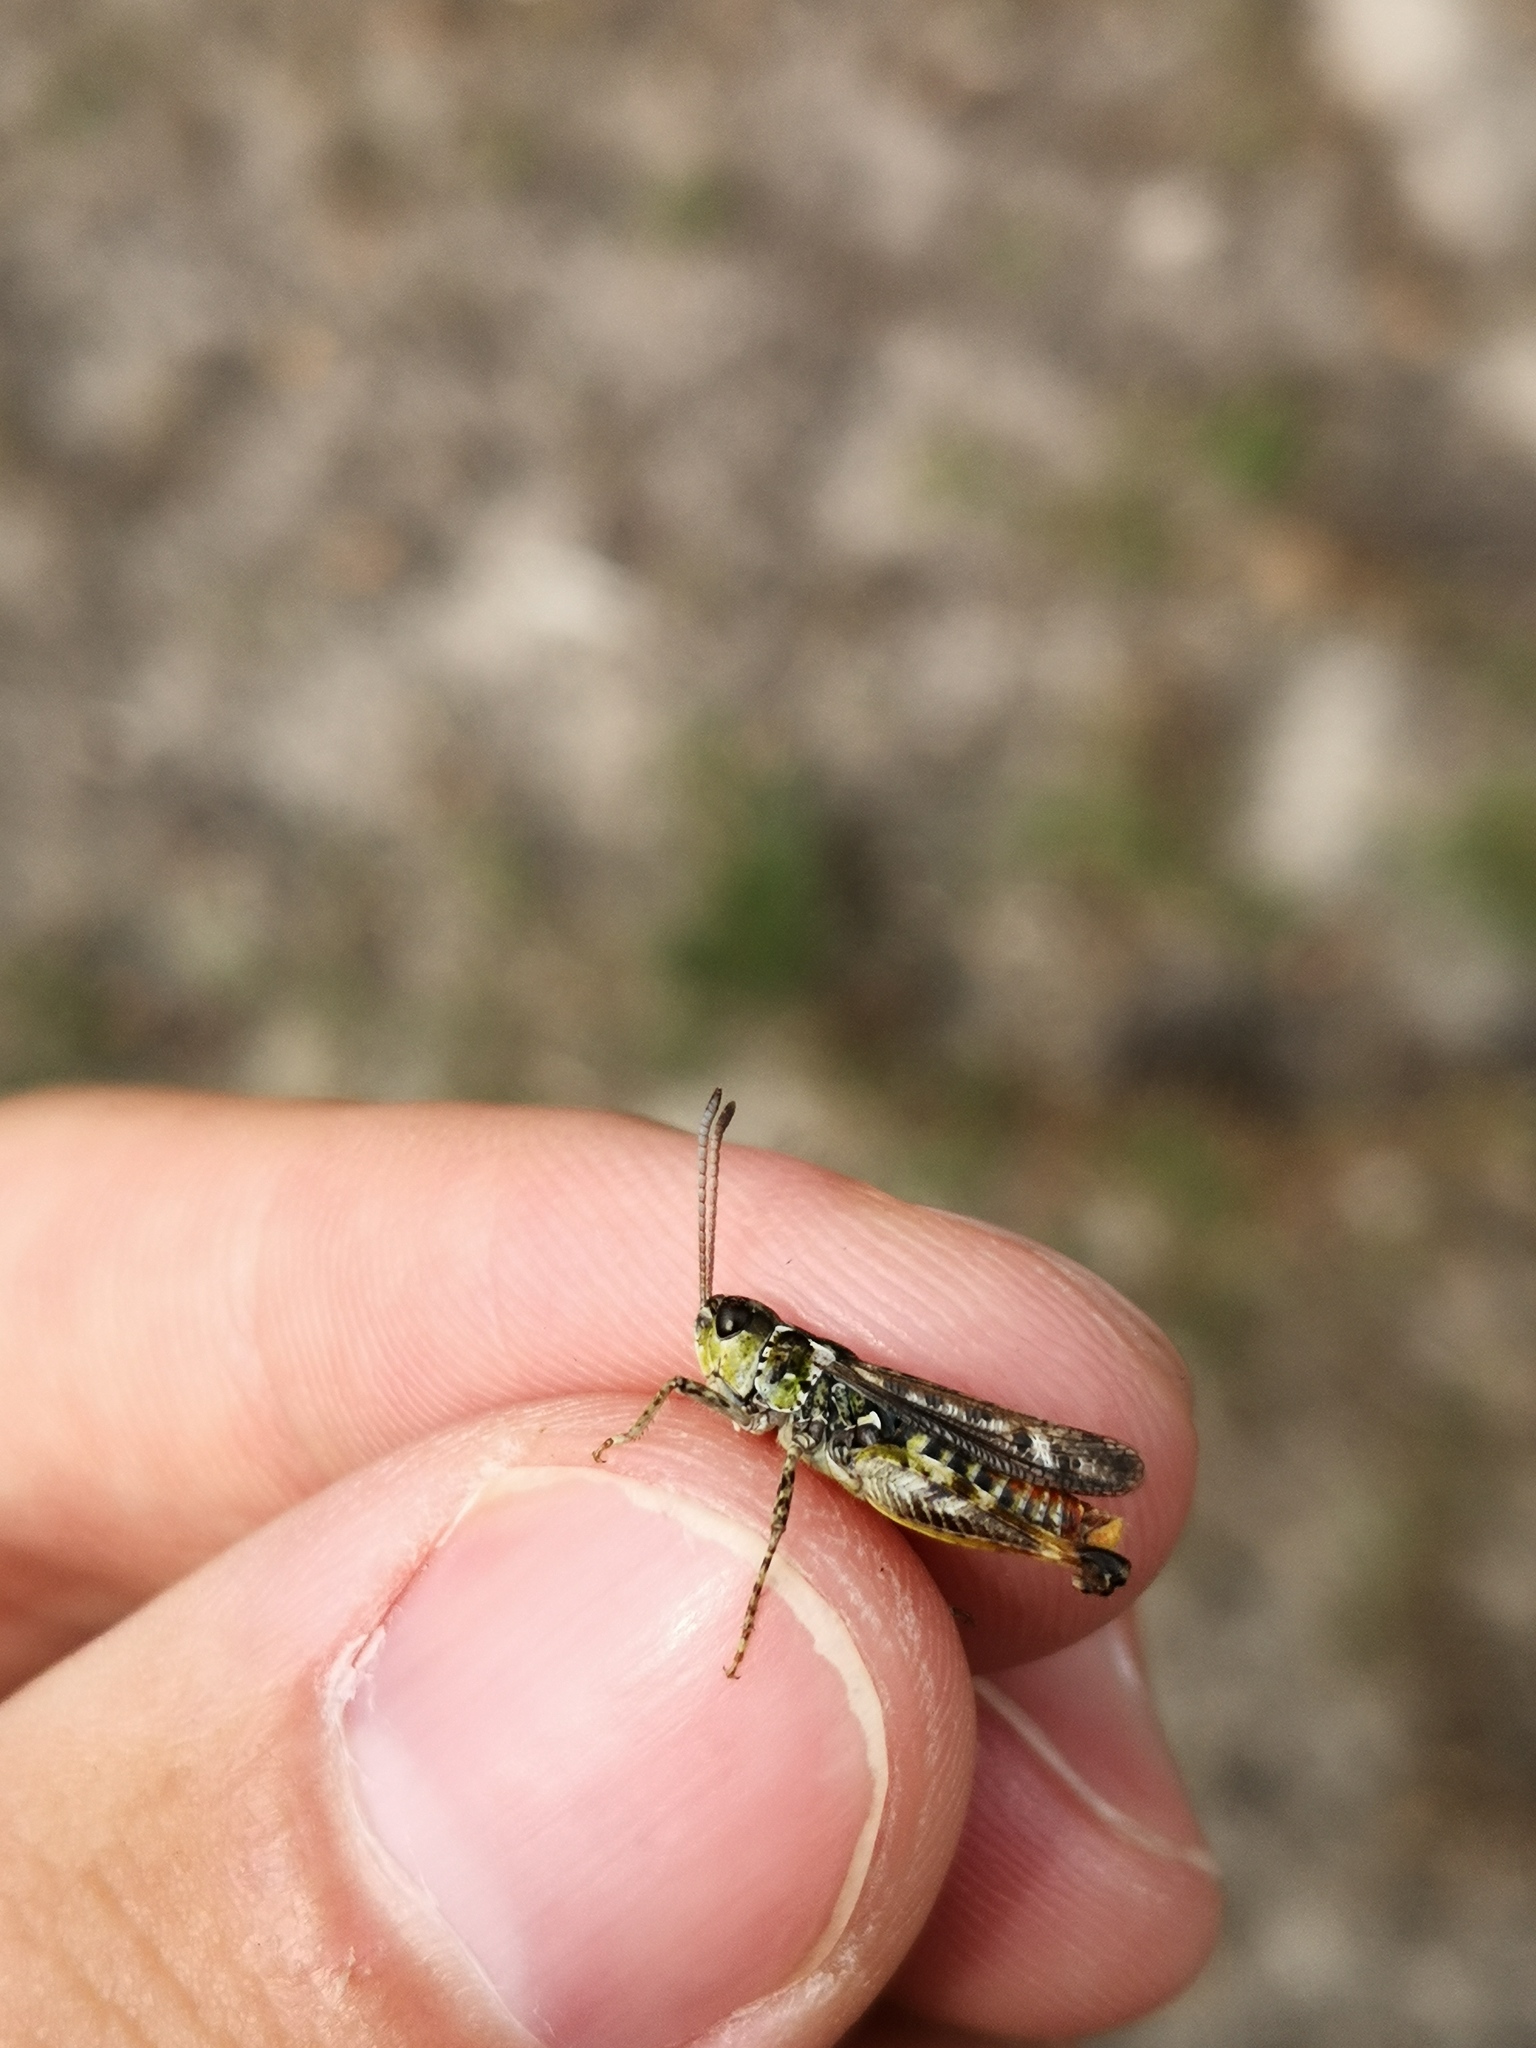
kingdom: Animalia
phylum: Arthropoda
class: Insecta
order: Orthoptera
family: Acrididae
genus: Myrmeleotettix
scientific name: Myrmeleotettix maculatus
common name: Mottled grasshopper
